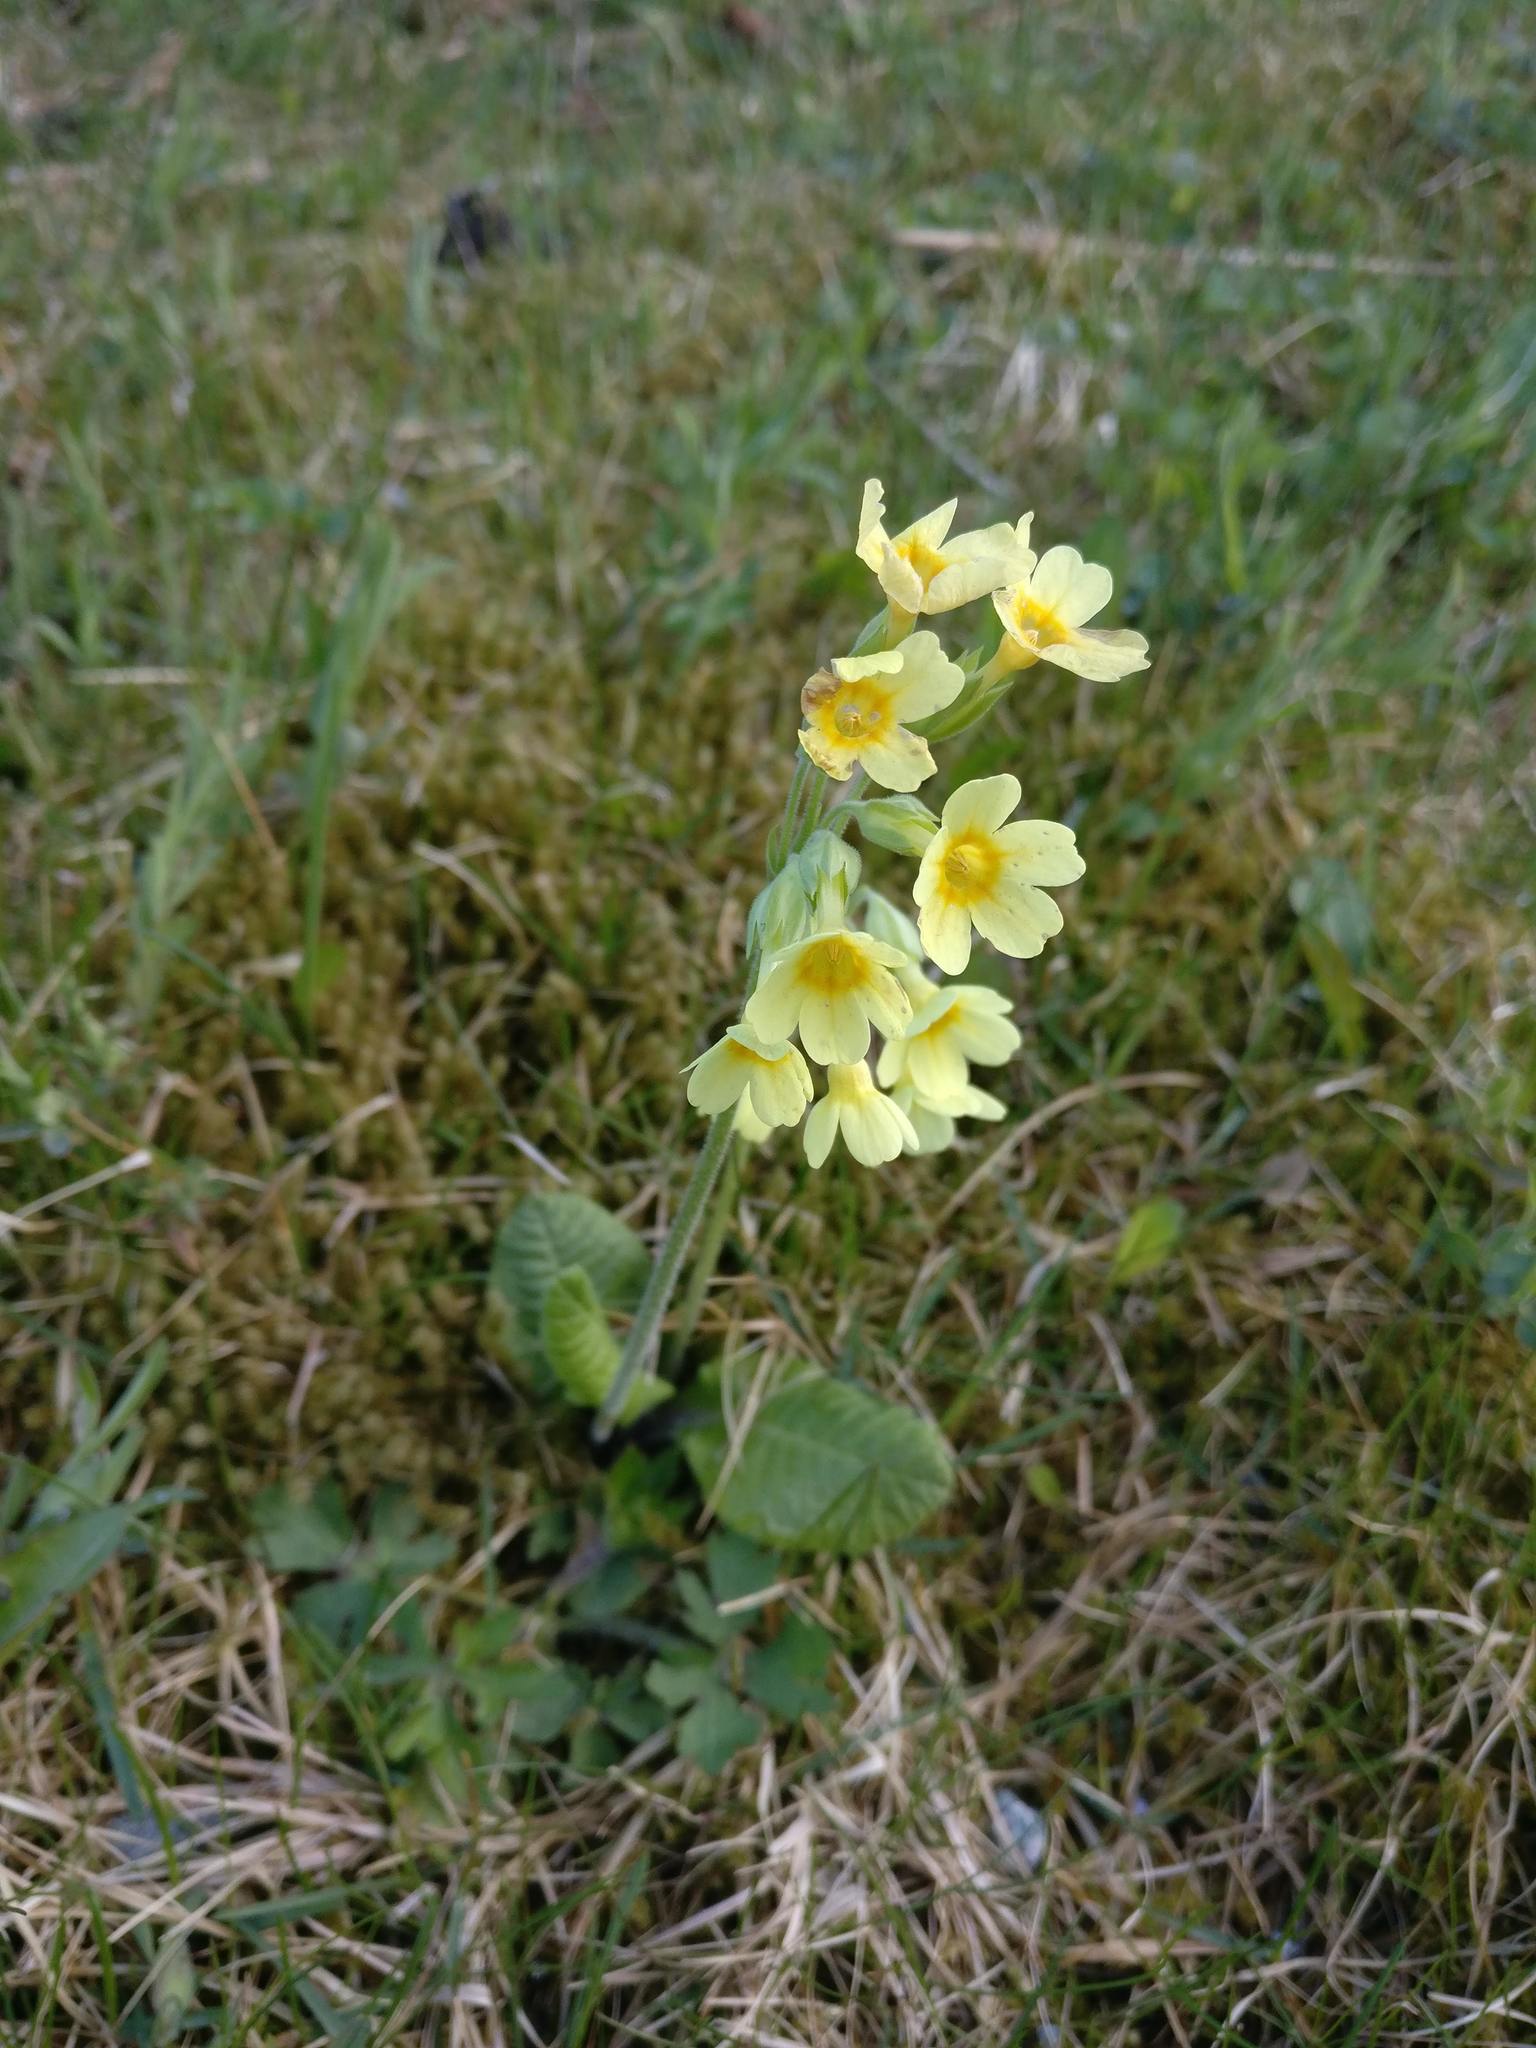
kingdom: Plantae
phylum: Tracheophyta
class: Magnoliopsida
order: Ericales
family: Primulaceae
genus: Primula
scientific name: Primula elatior
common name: Oxlip
